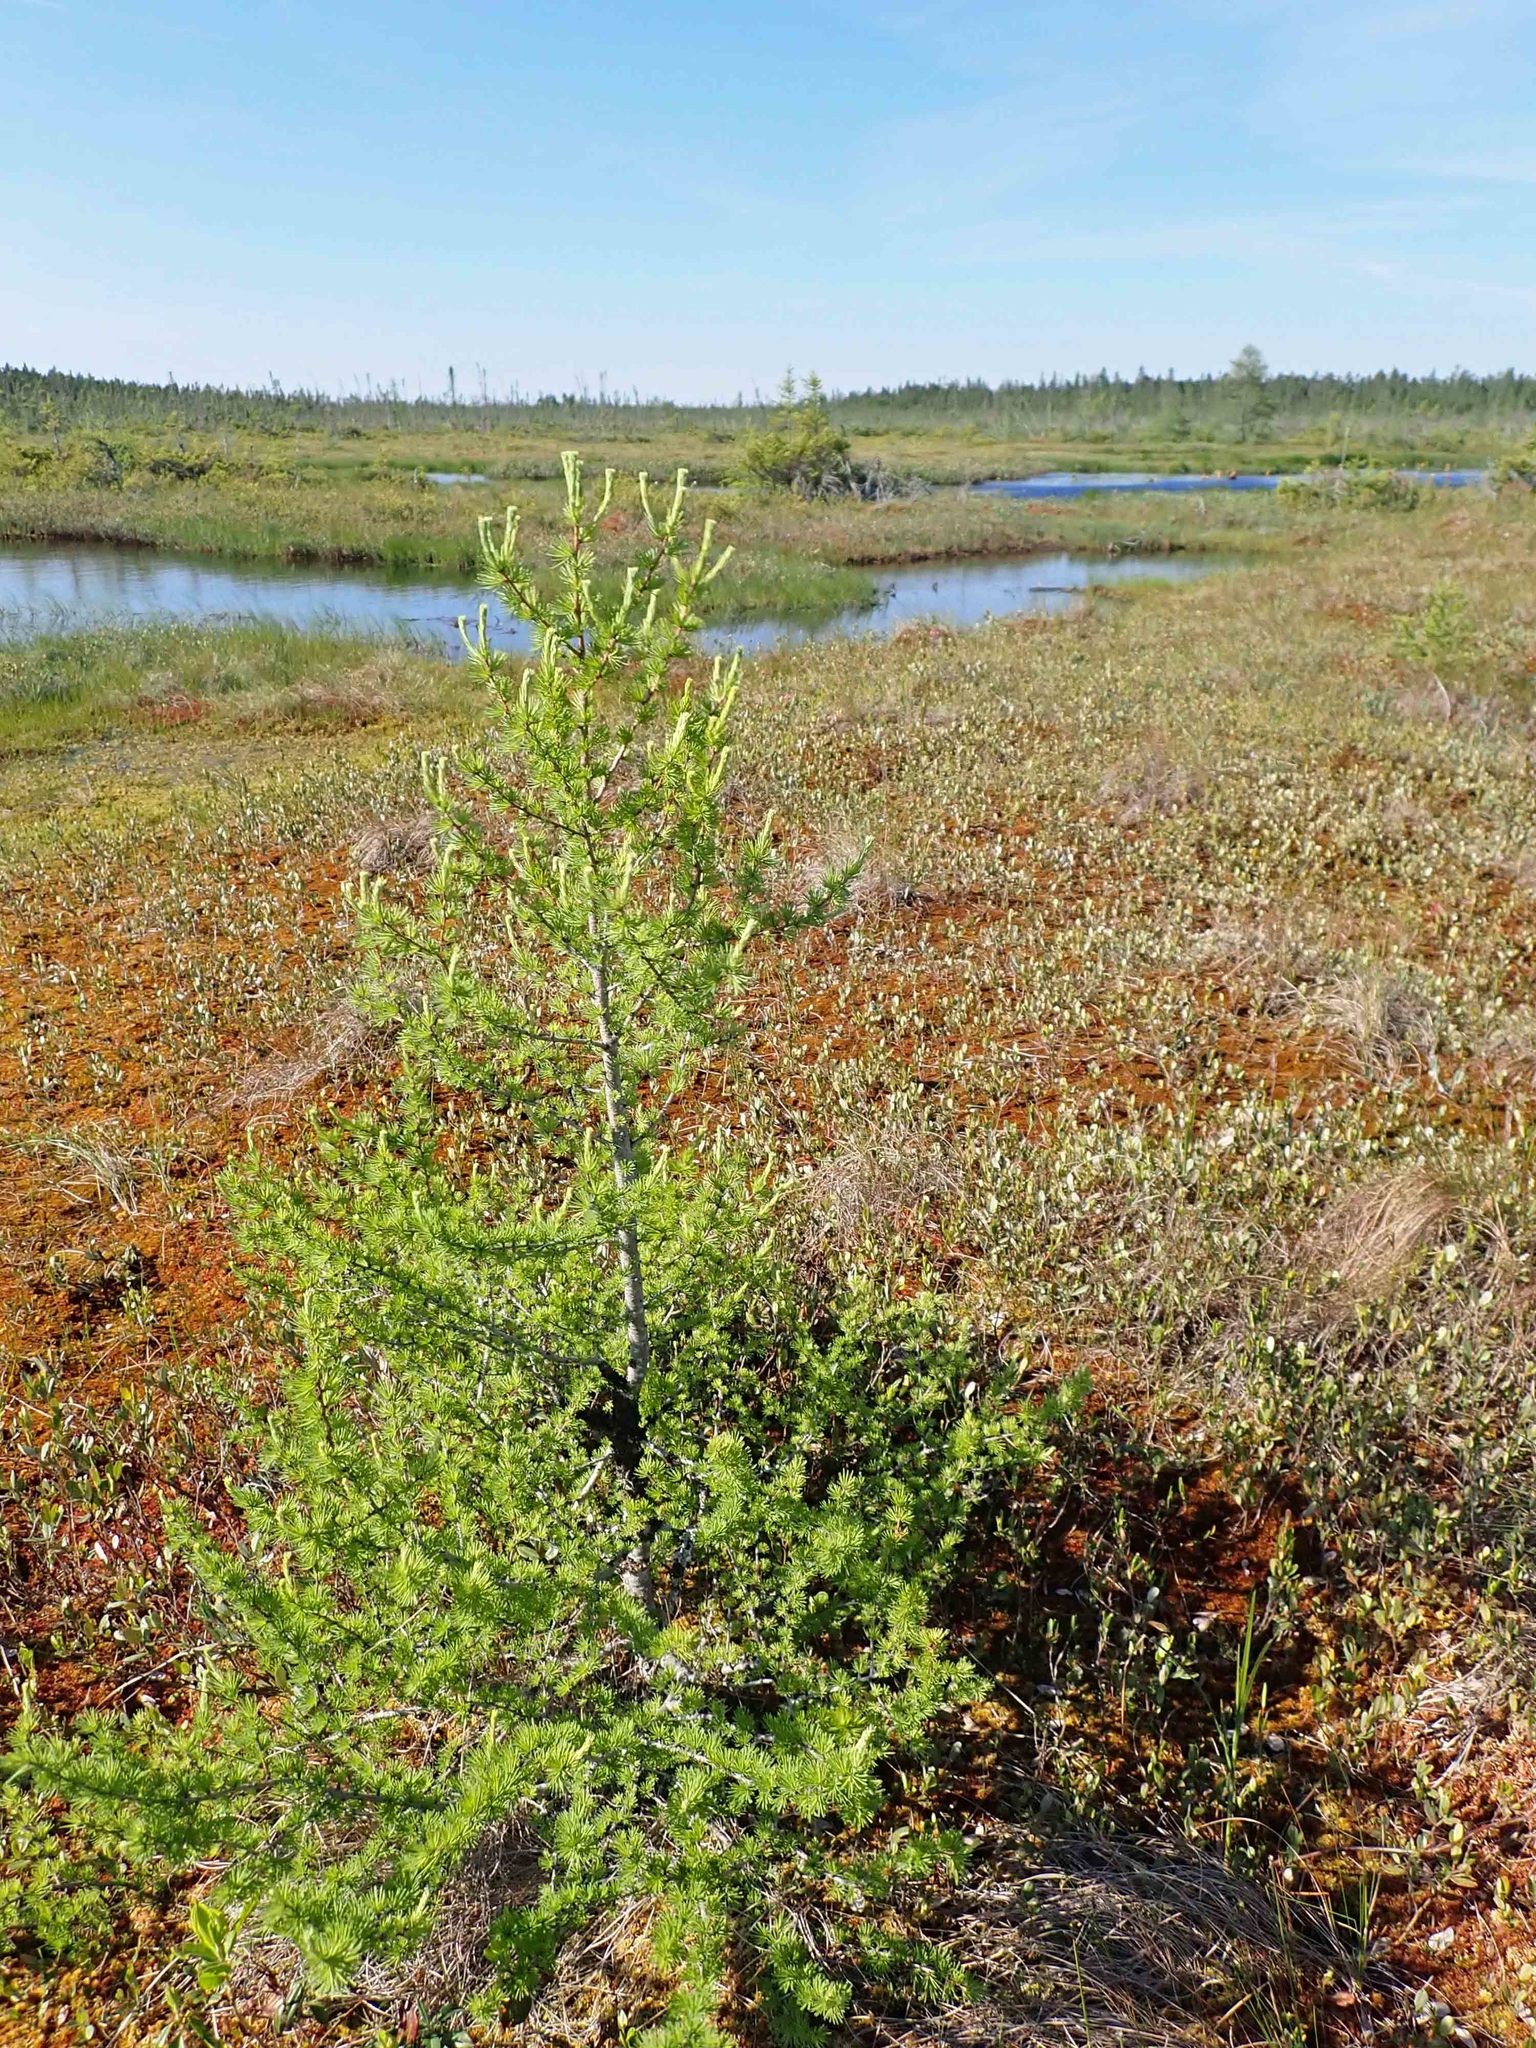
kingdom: Plantae
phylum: Tracheophyta
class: Pinopsida
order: Pinales
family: Pinaceae
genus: Larix
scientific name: Larix laricina
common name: American larch
